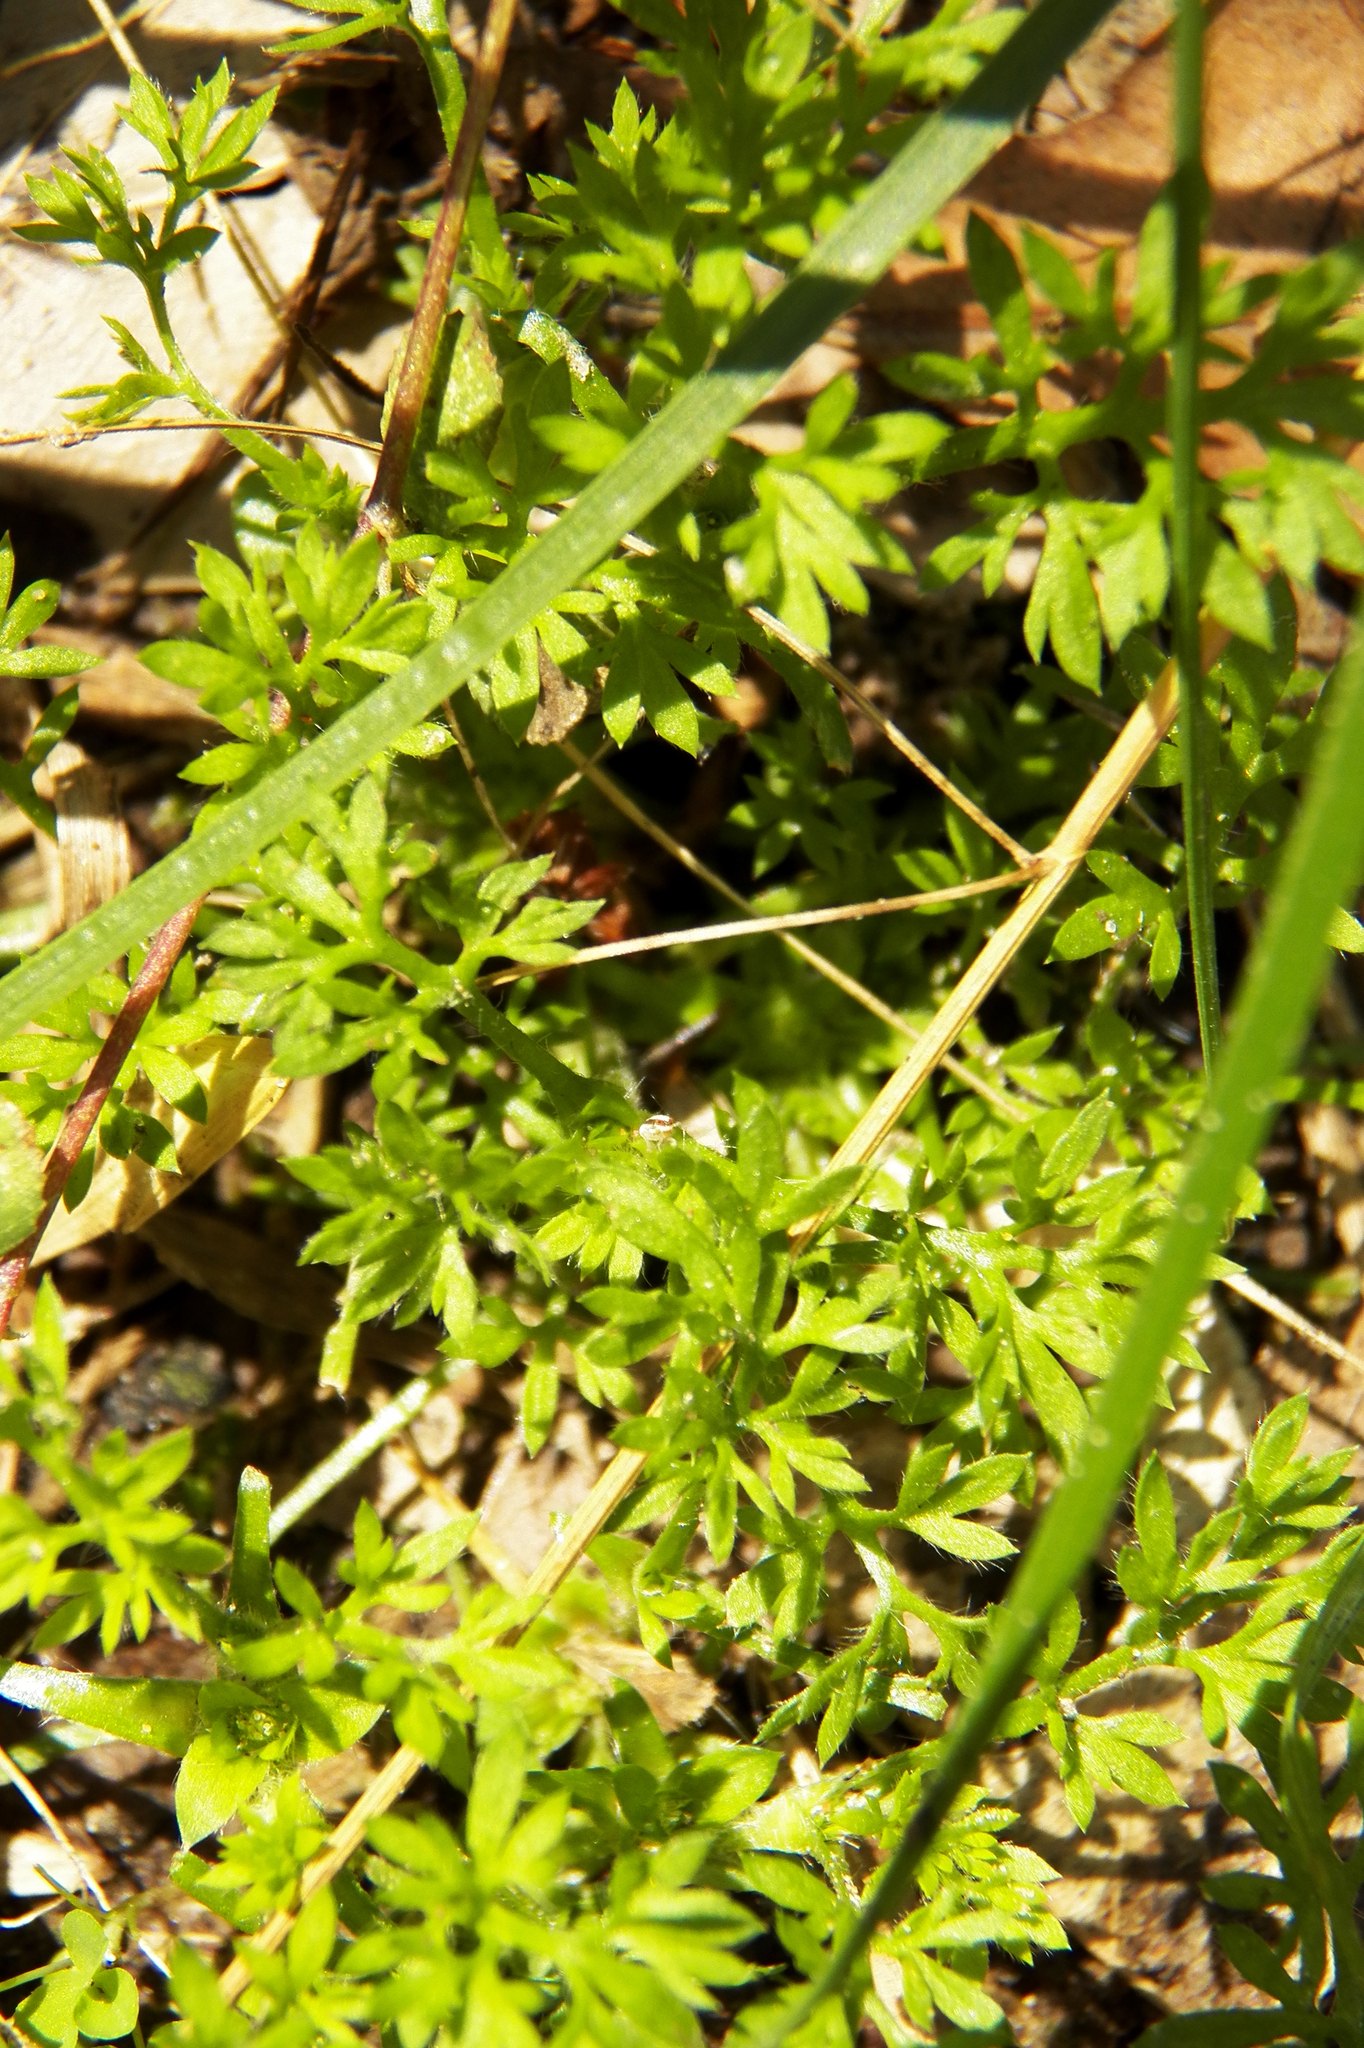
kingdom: Plantae
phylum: Tracheophyta
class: Magnoliopsida
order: Asterales
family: Asteraceae
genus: Soliva
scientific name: Soliva sessilis
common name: Field burrweed
